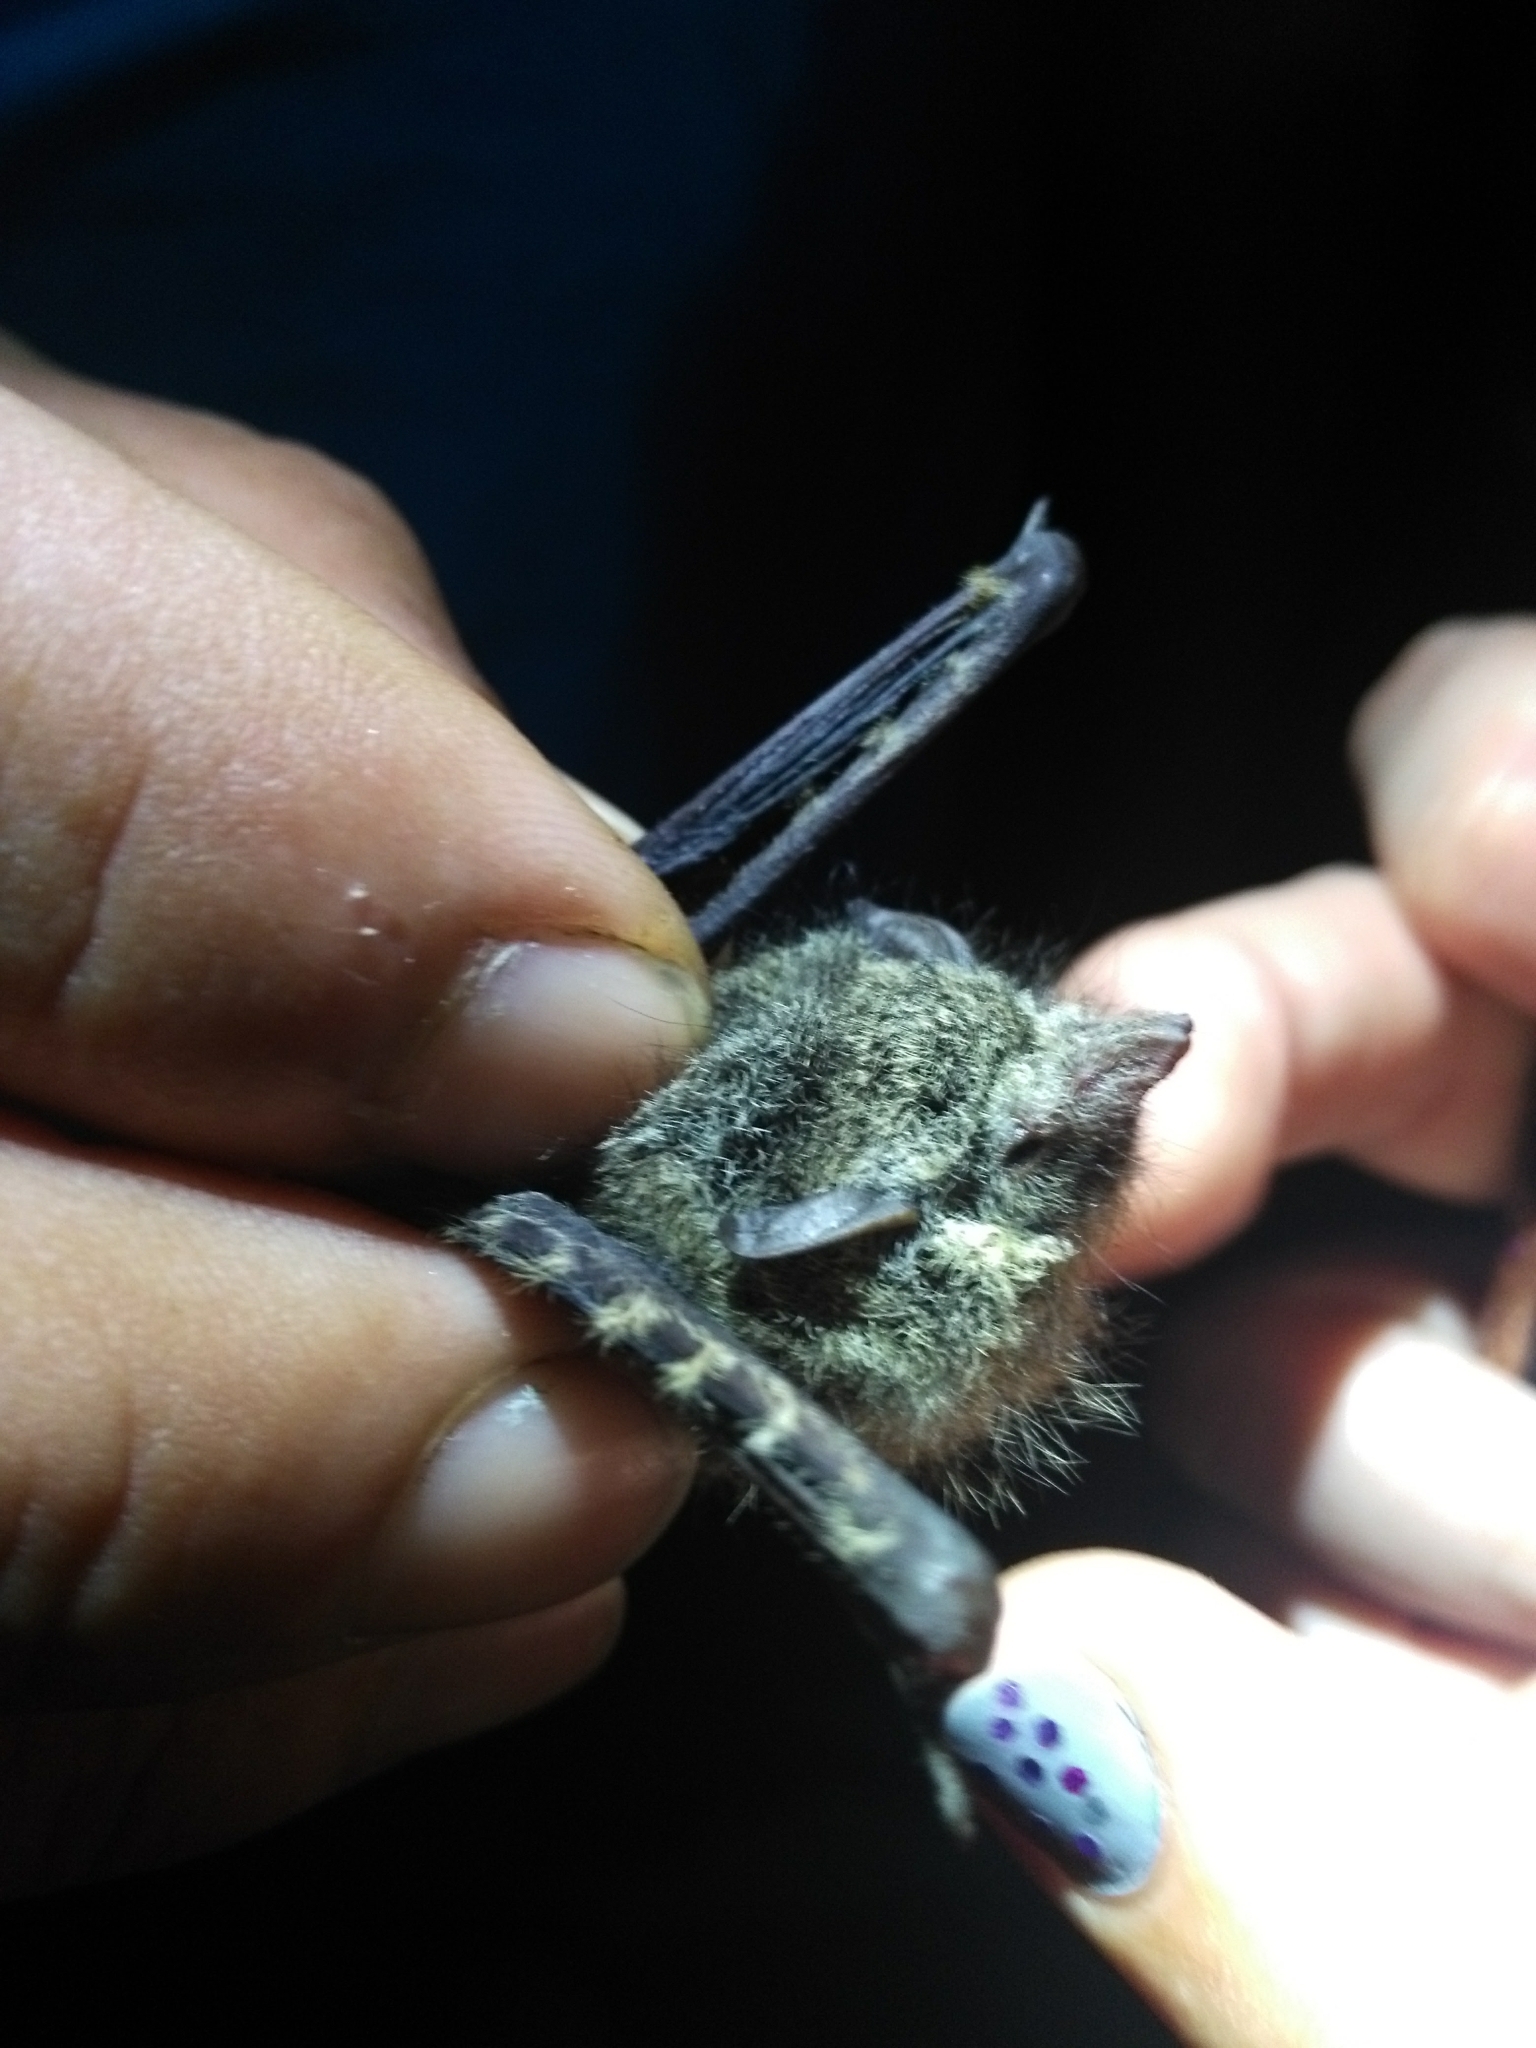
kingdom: Animalia
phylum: Chordata
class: Mammalia
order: Chiroptera
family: Emballonuridae
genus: Rhynchonycteris
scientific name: Rhynchonycteris naso
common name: Proboscis bat
